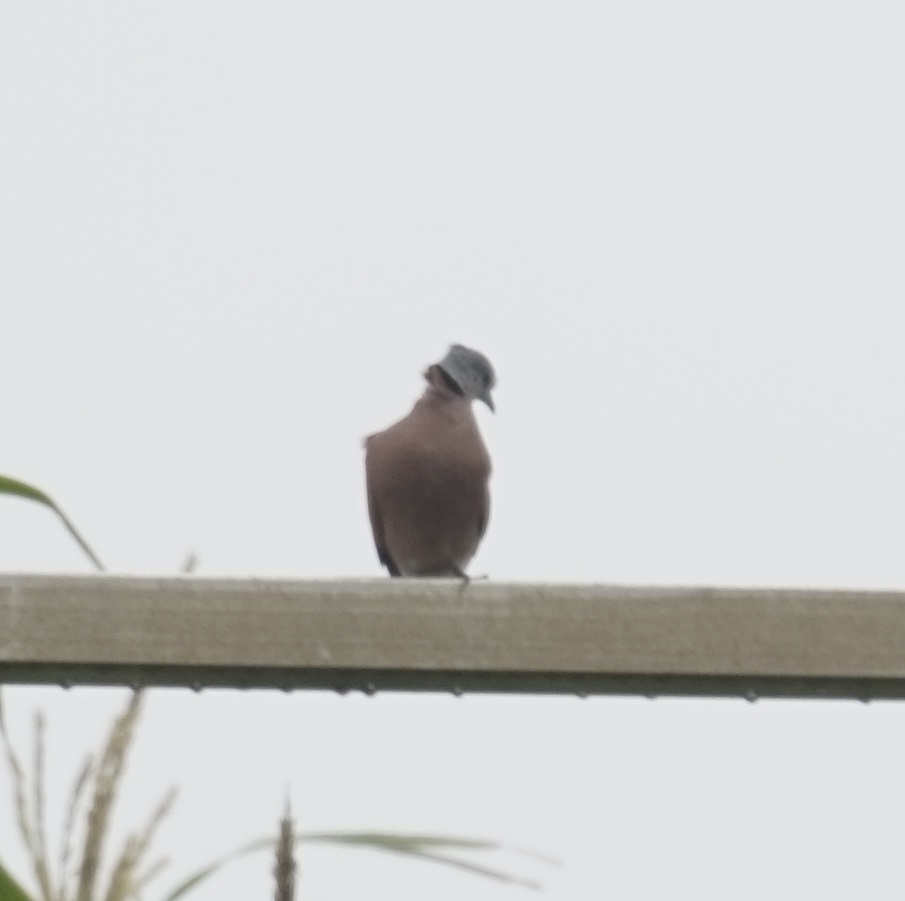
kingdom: Animalia
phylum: Chordata
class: Aves
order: Columbiformes
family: Columbidae
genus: Streptopelia
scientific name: Streptopelia tranquebarica
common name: Red turtle dove
